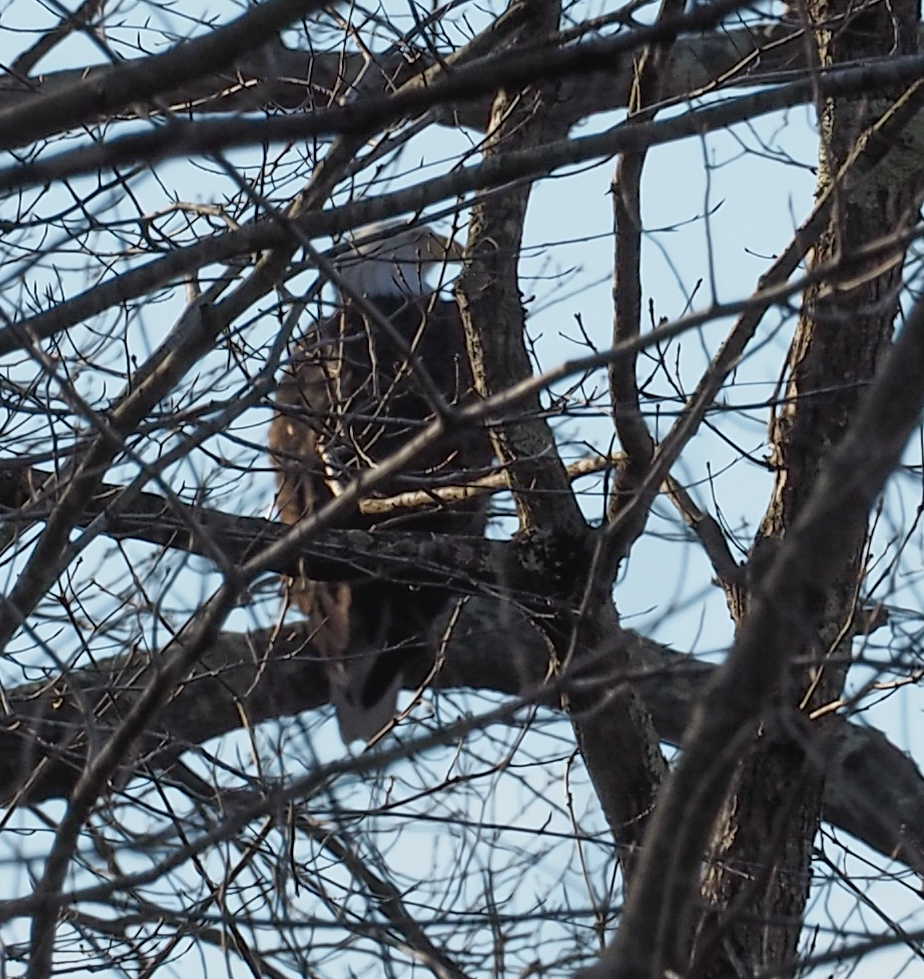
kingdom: Animalia
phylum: Chordata
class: Aves
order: Accipitriformes
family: Accipitridae
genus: Haliaeetus
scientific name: Haliaeetus leucocephalus
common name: Bald eagle
